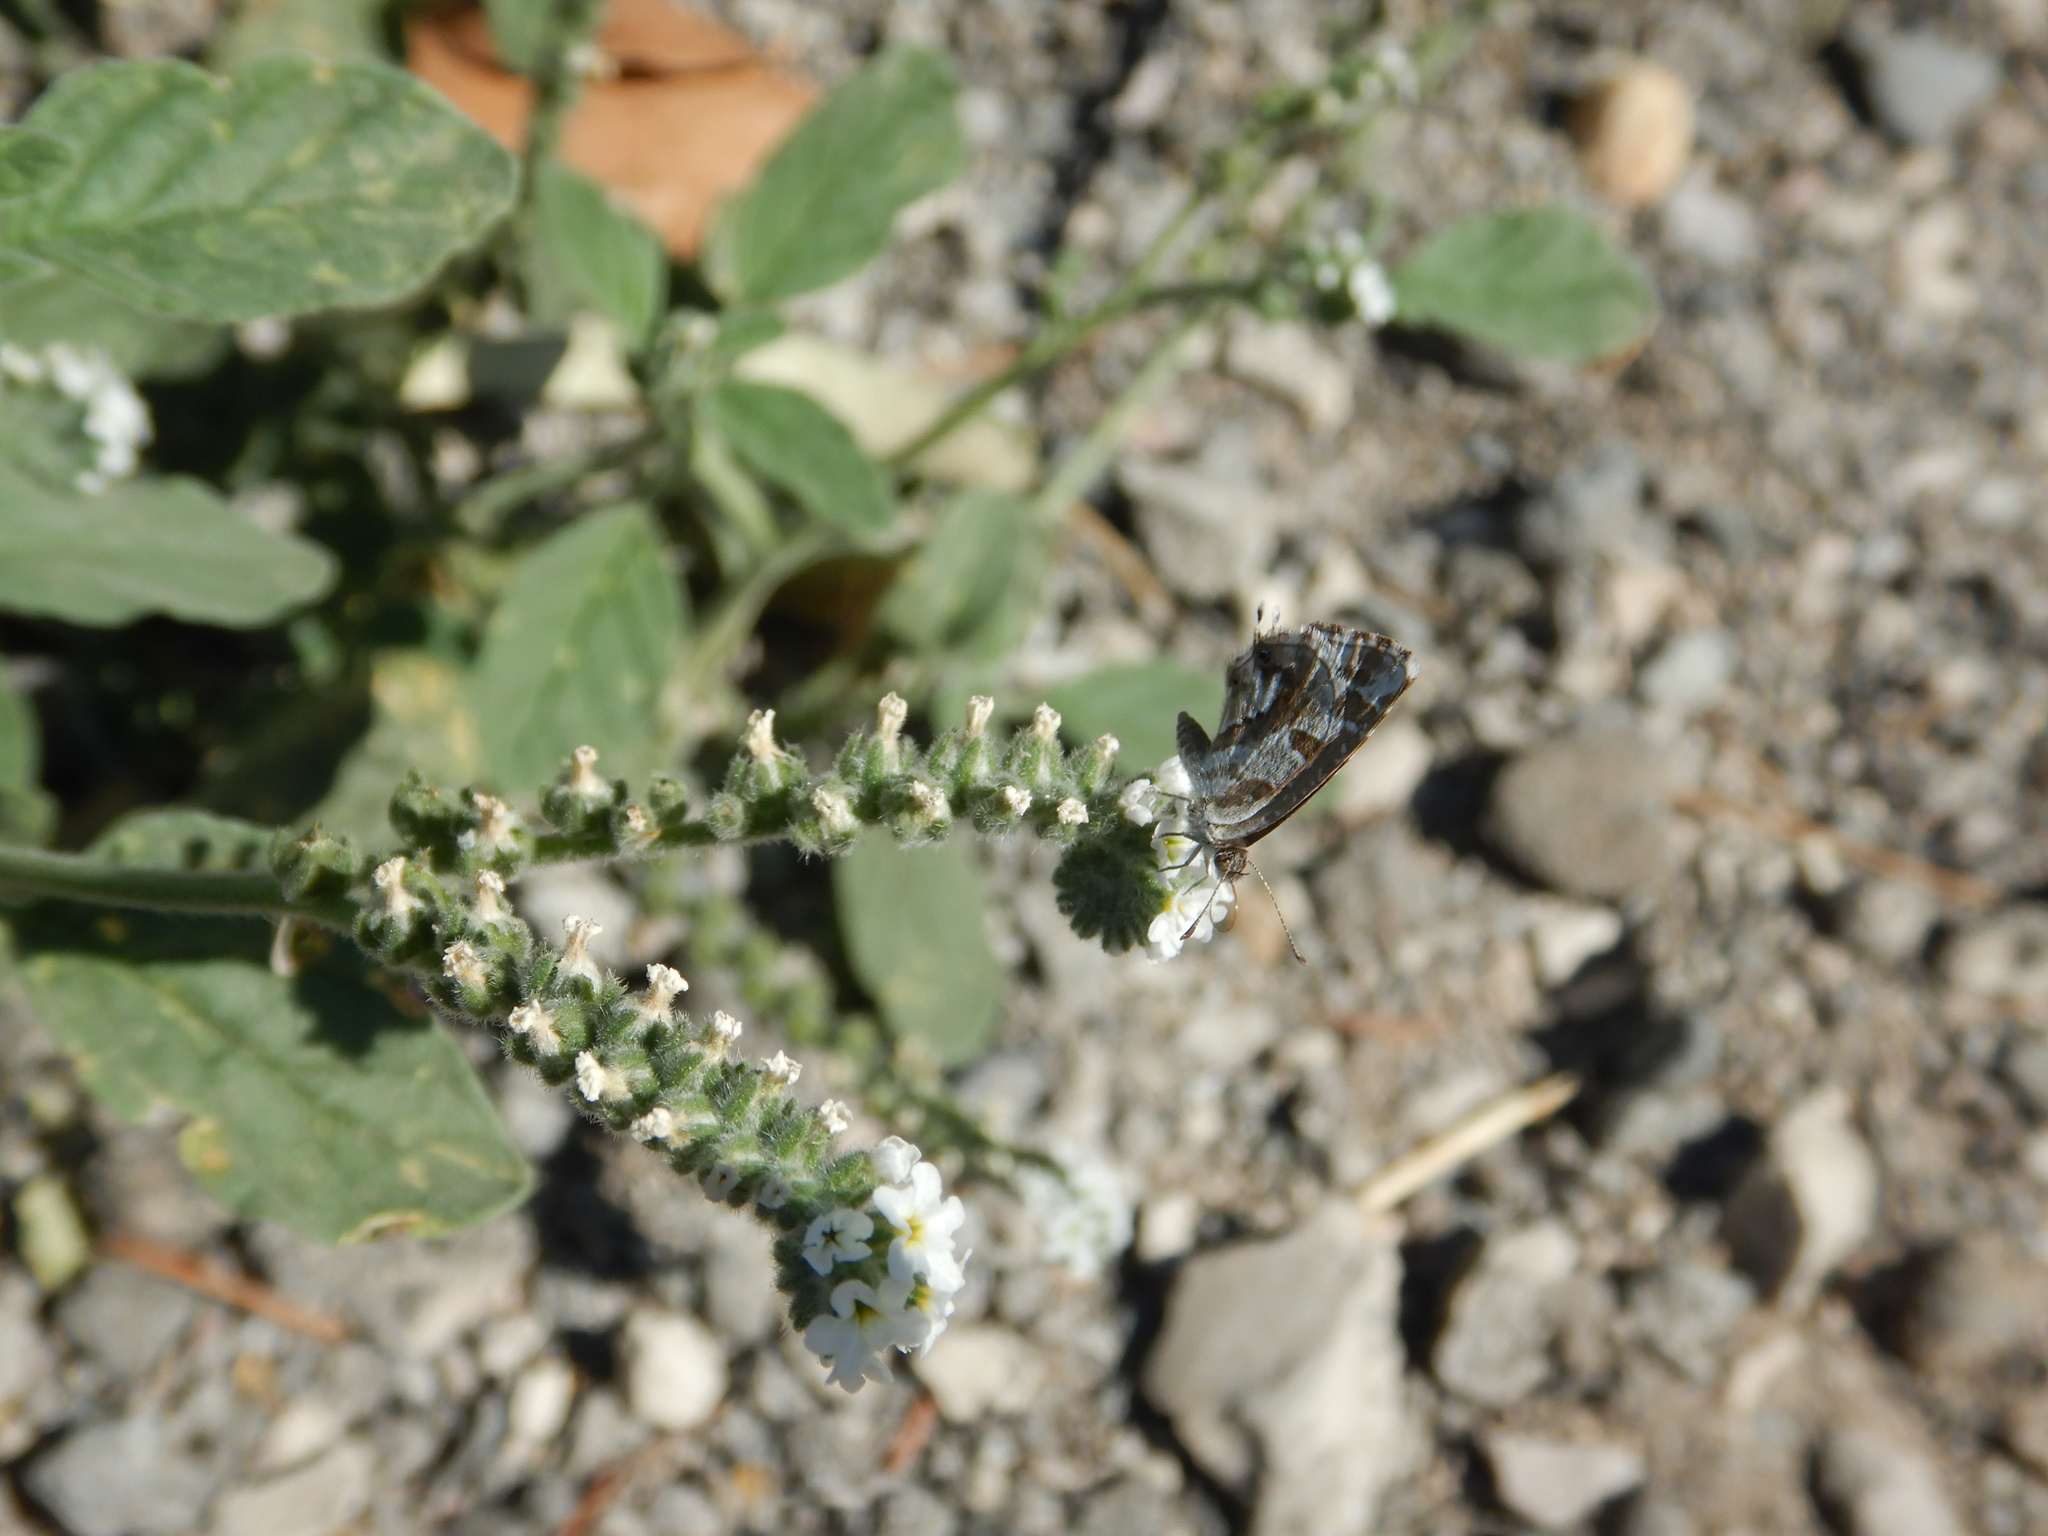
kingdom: Animalia
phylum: Arthropoda
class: Insecta
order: Lepidoptera
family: Lycaenidae
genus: Cacyreus
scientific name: Cacyreus marshalli
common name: Geranium bronze
